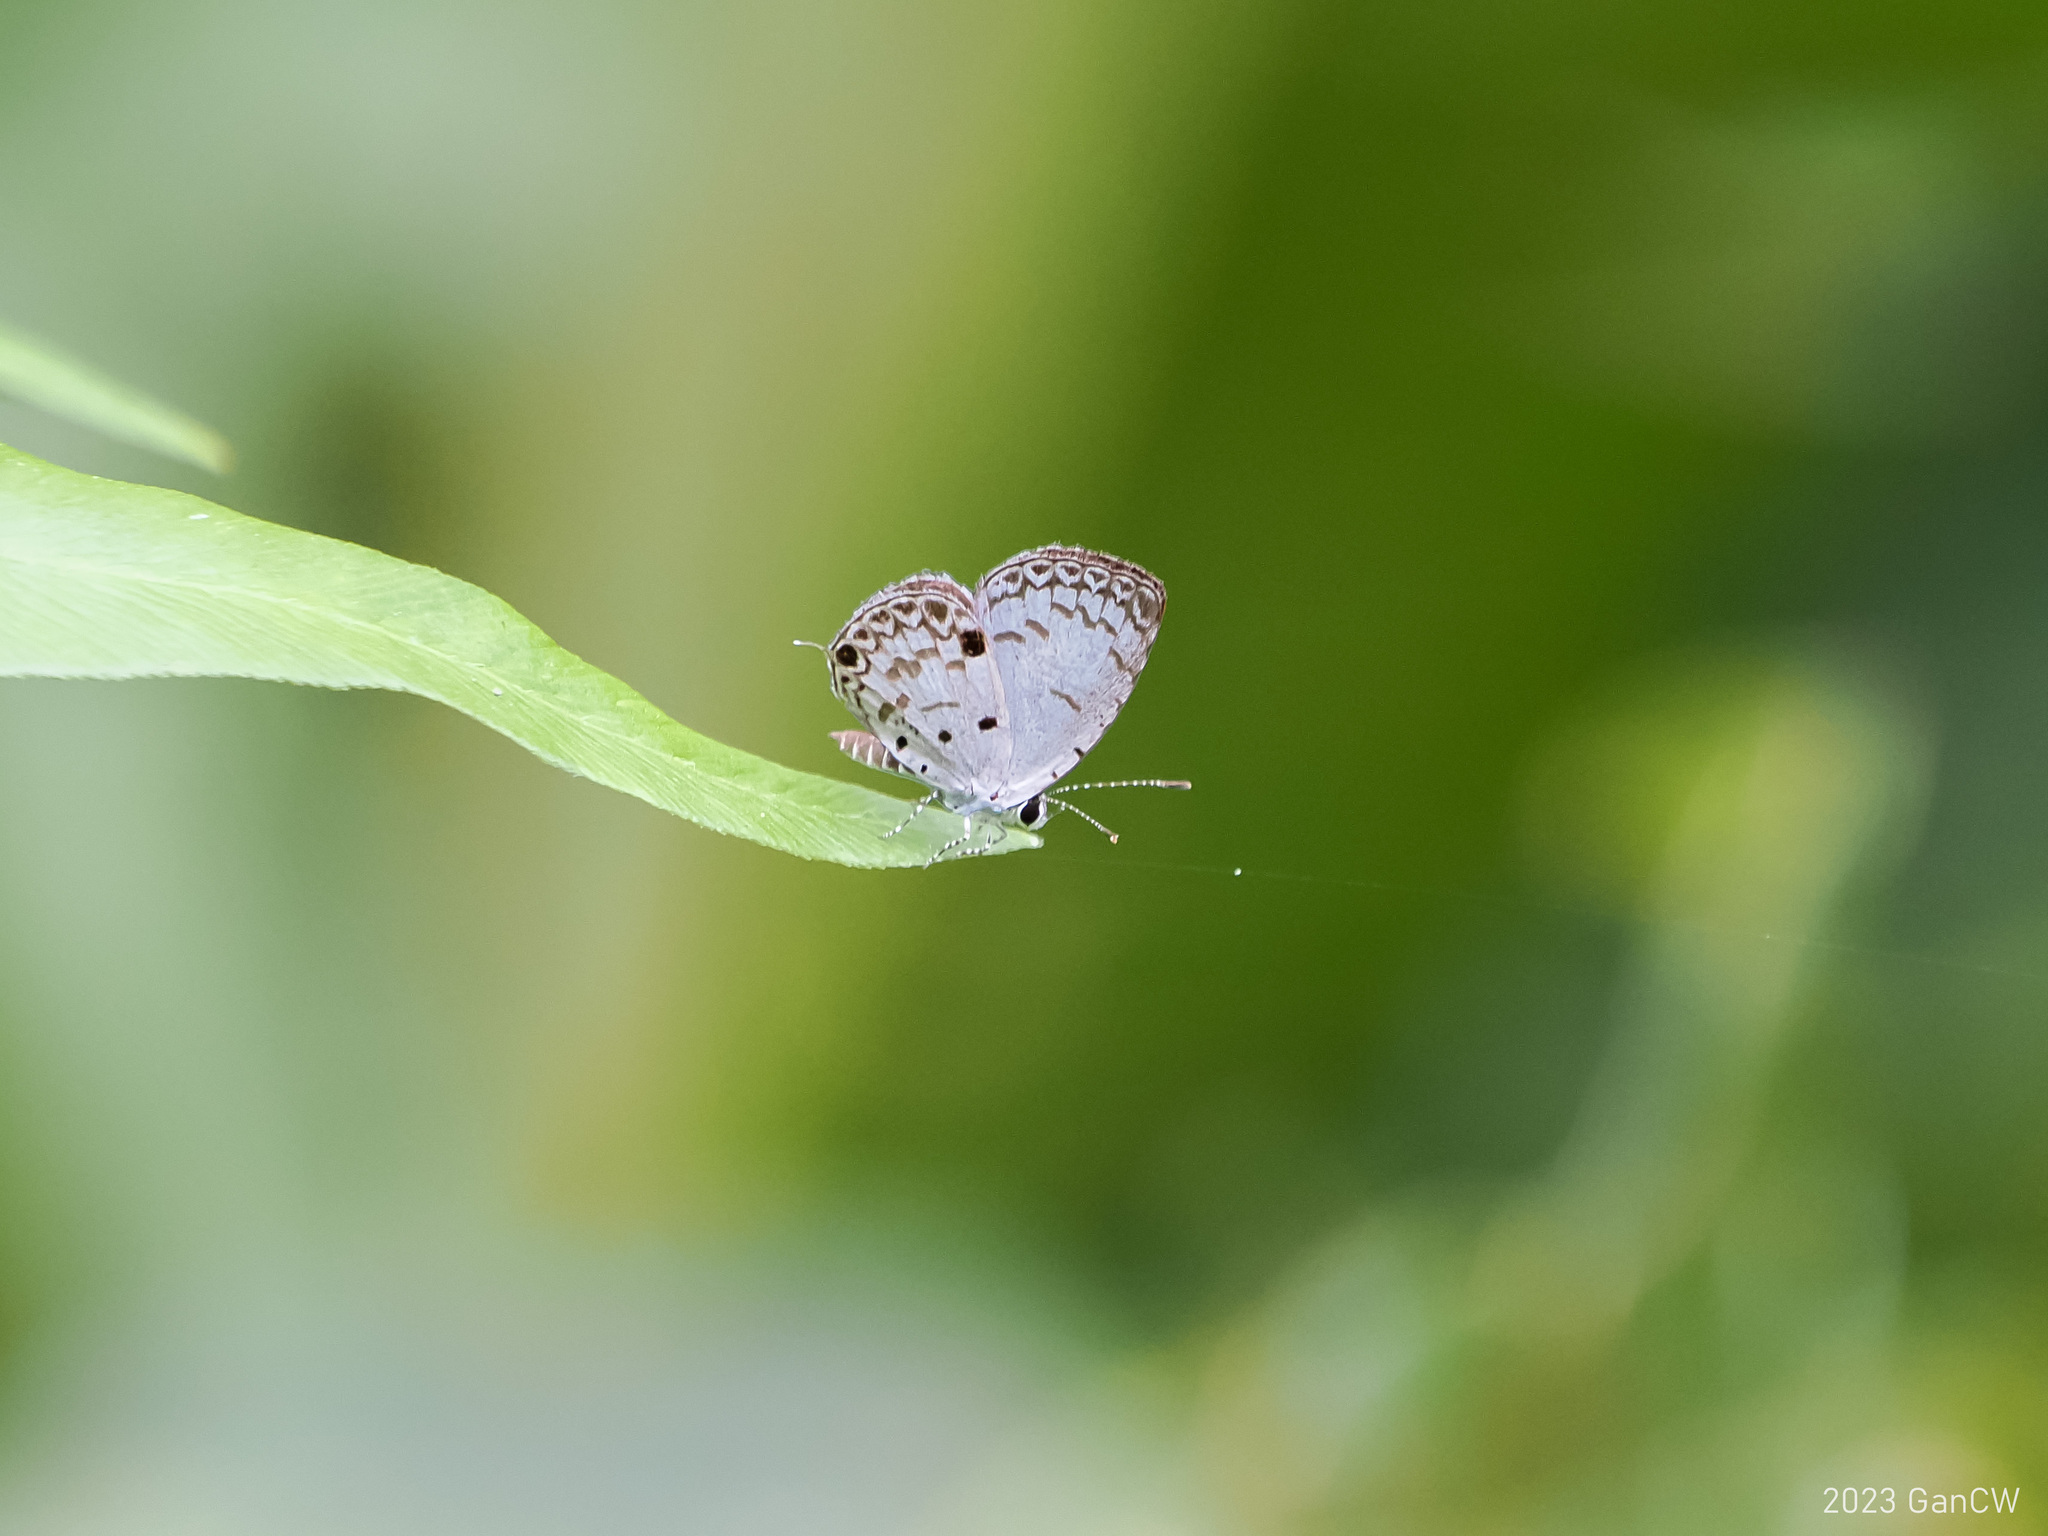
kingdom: Animalia
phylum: Arthropoda
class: Insecta
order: Lepidoptera
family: Lycaenidae
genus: Megisba
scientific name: Megisba malaya
